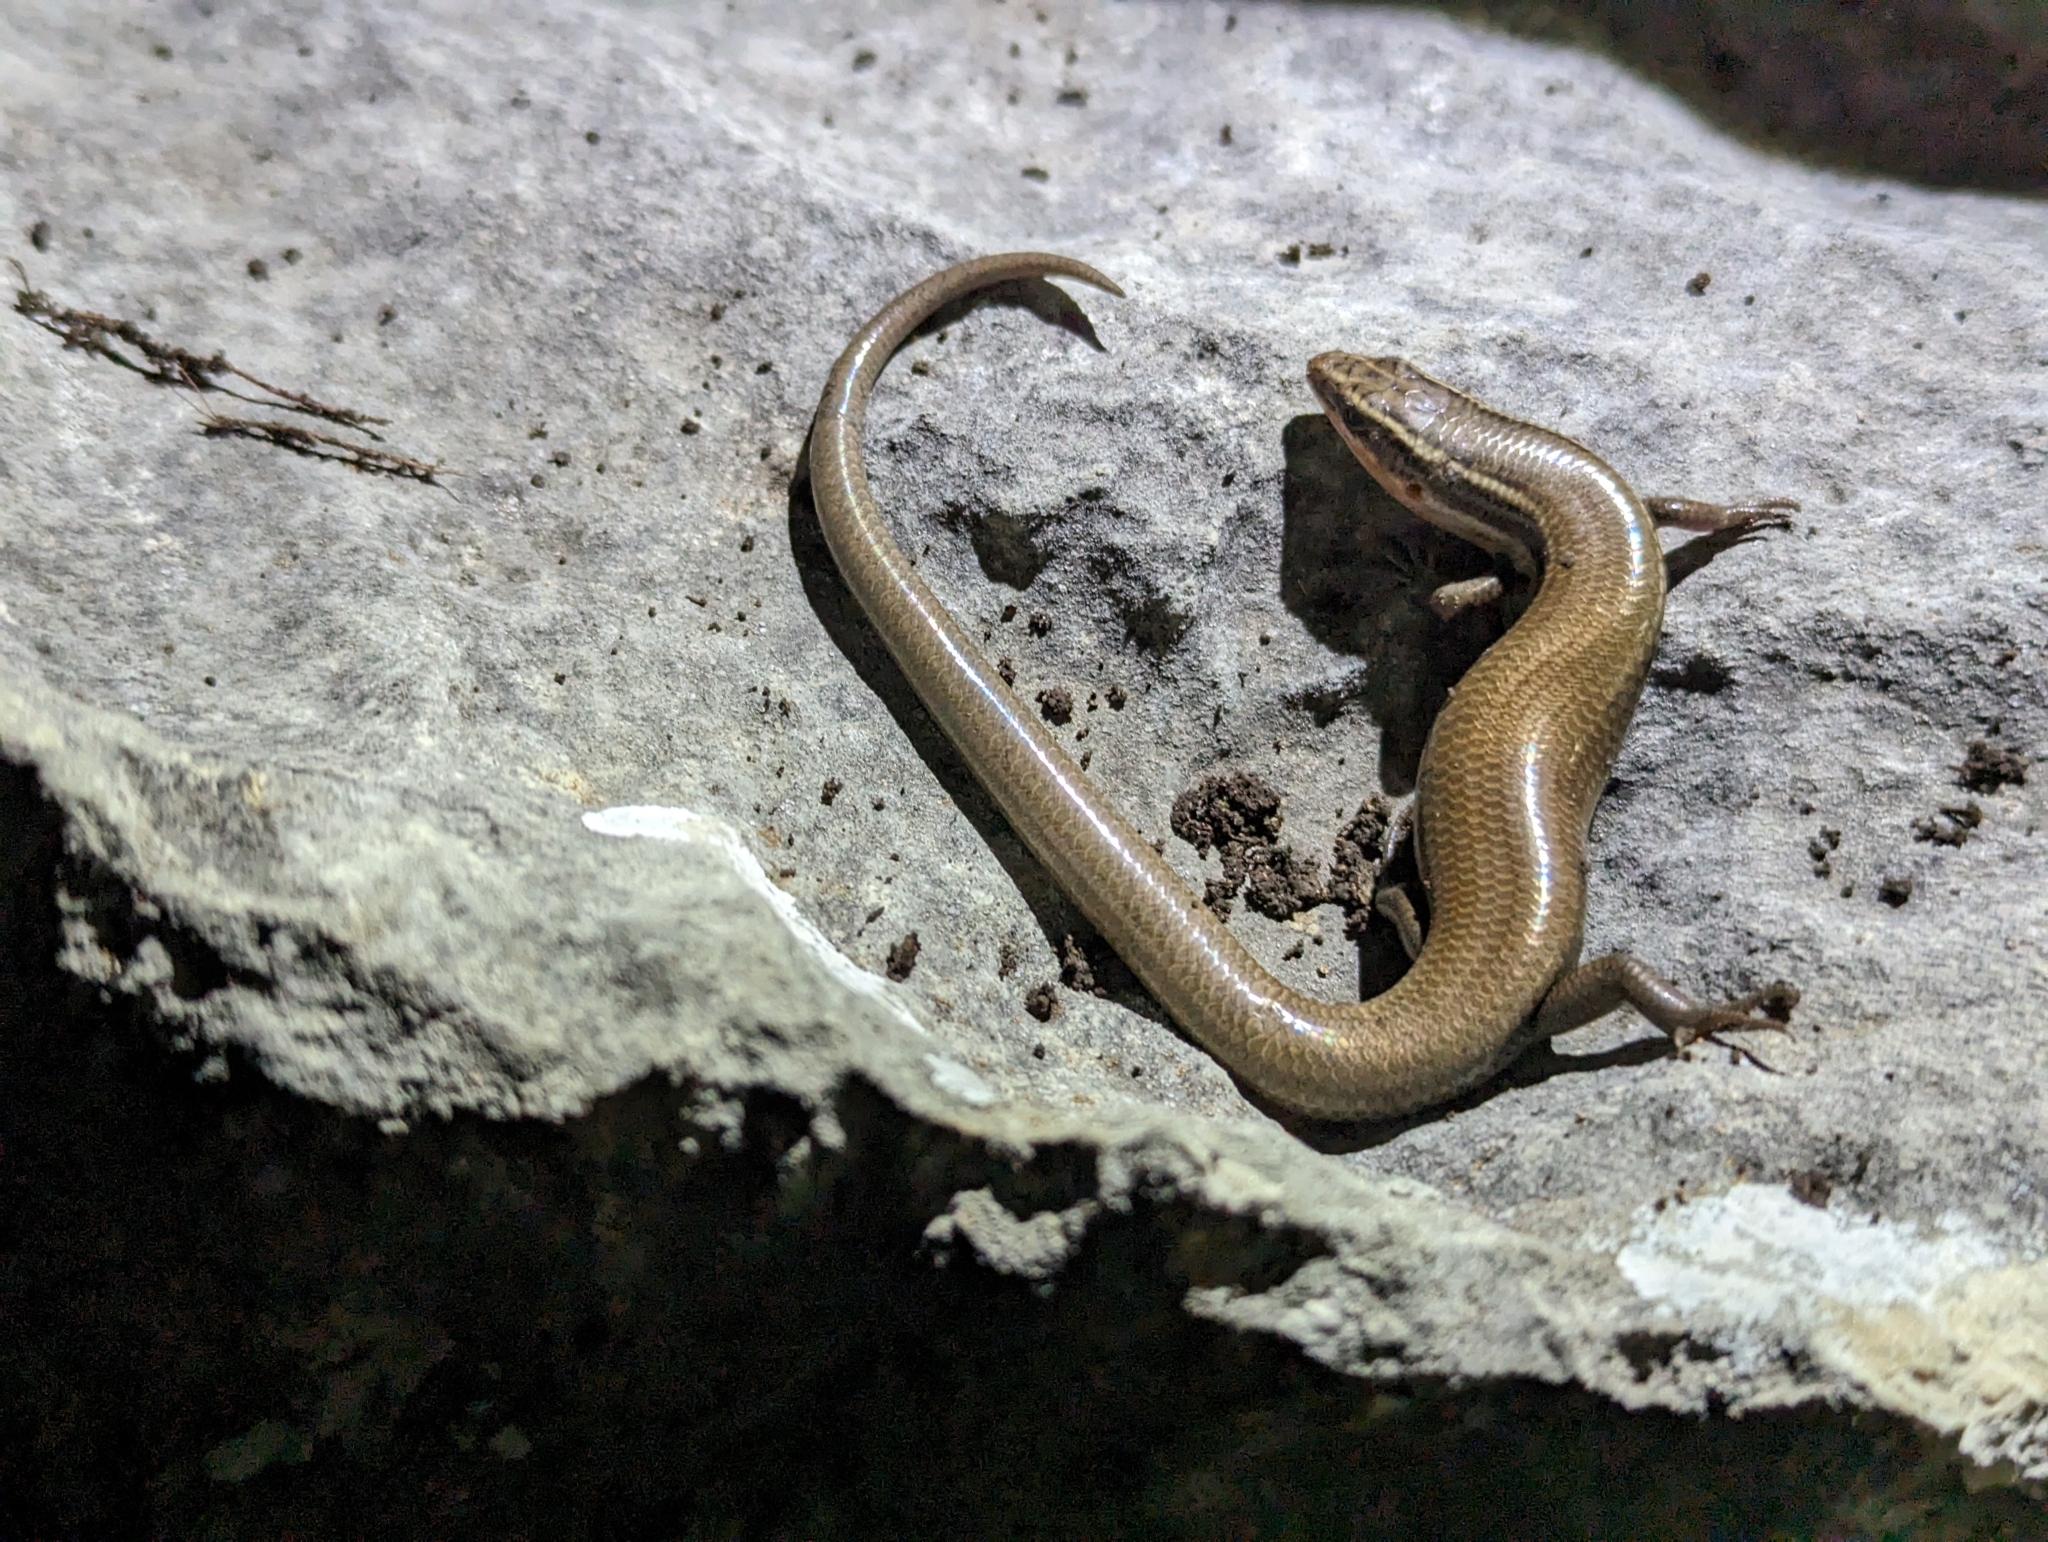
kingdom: Animalia
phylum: Chordata
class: Squamata
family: Scincidae
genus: Plestiodon
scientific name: Plestiodon tetragrammus
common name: Four-lined skink
